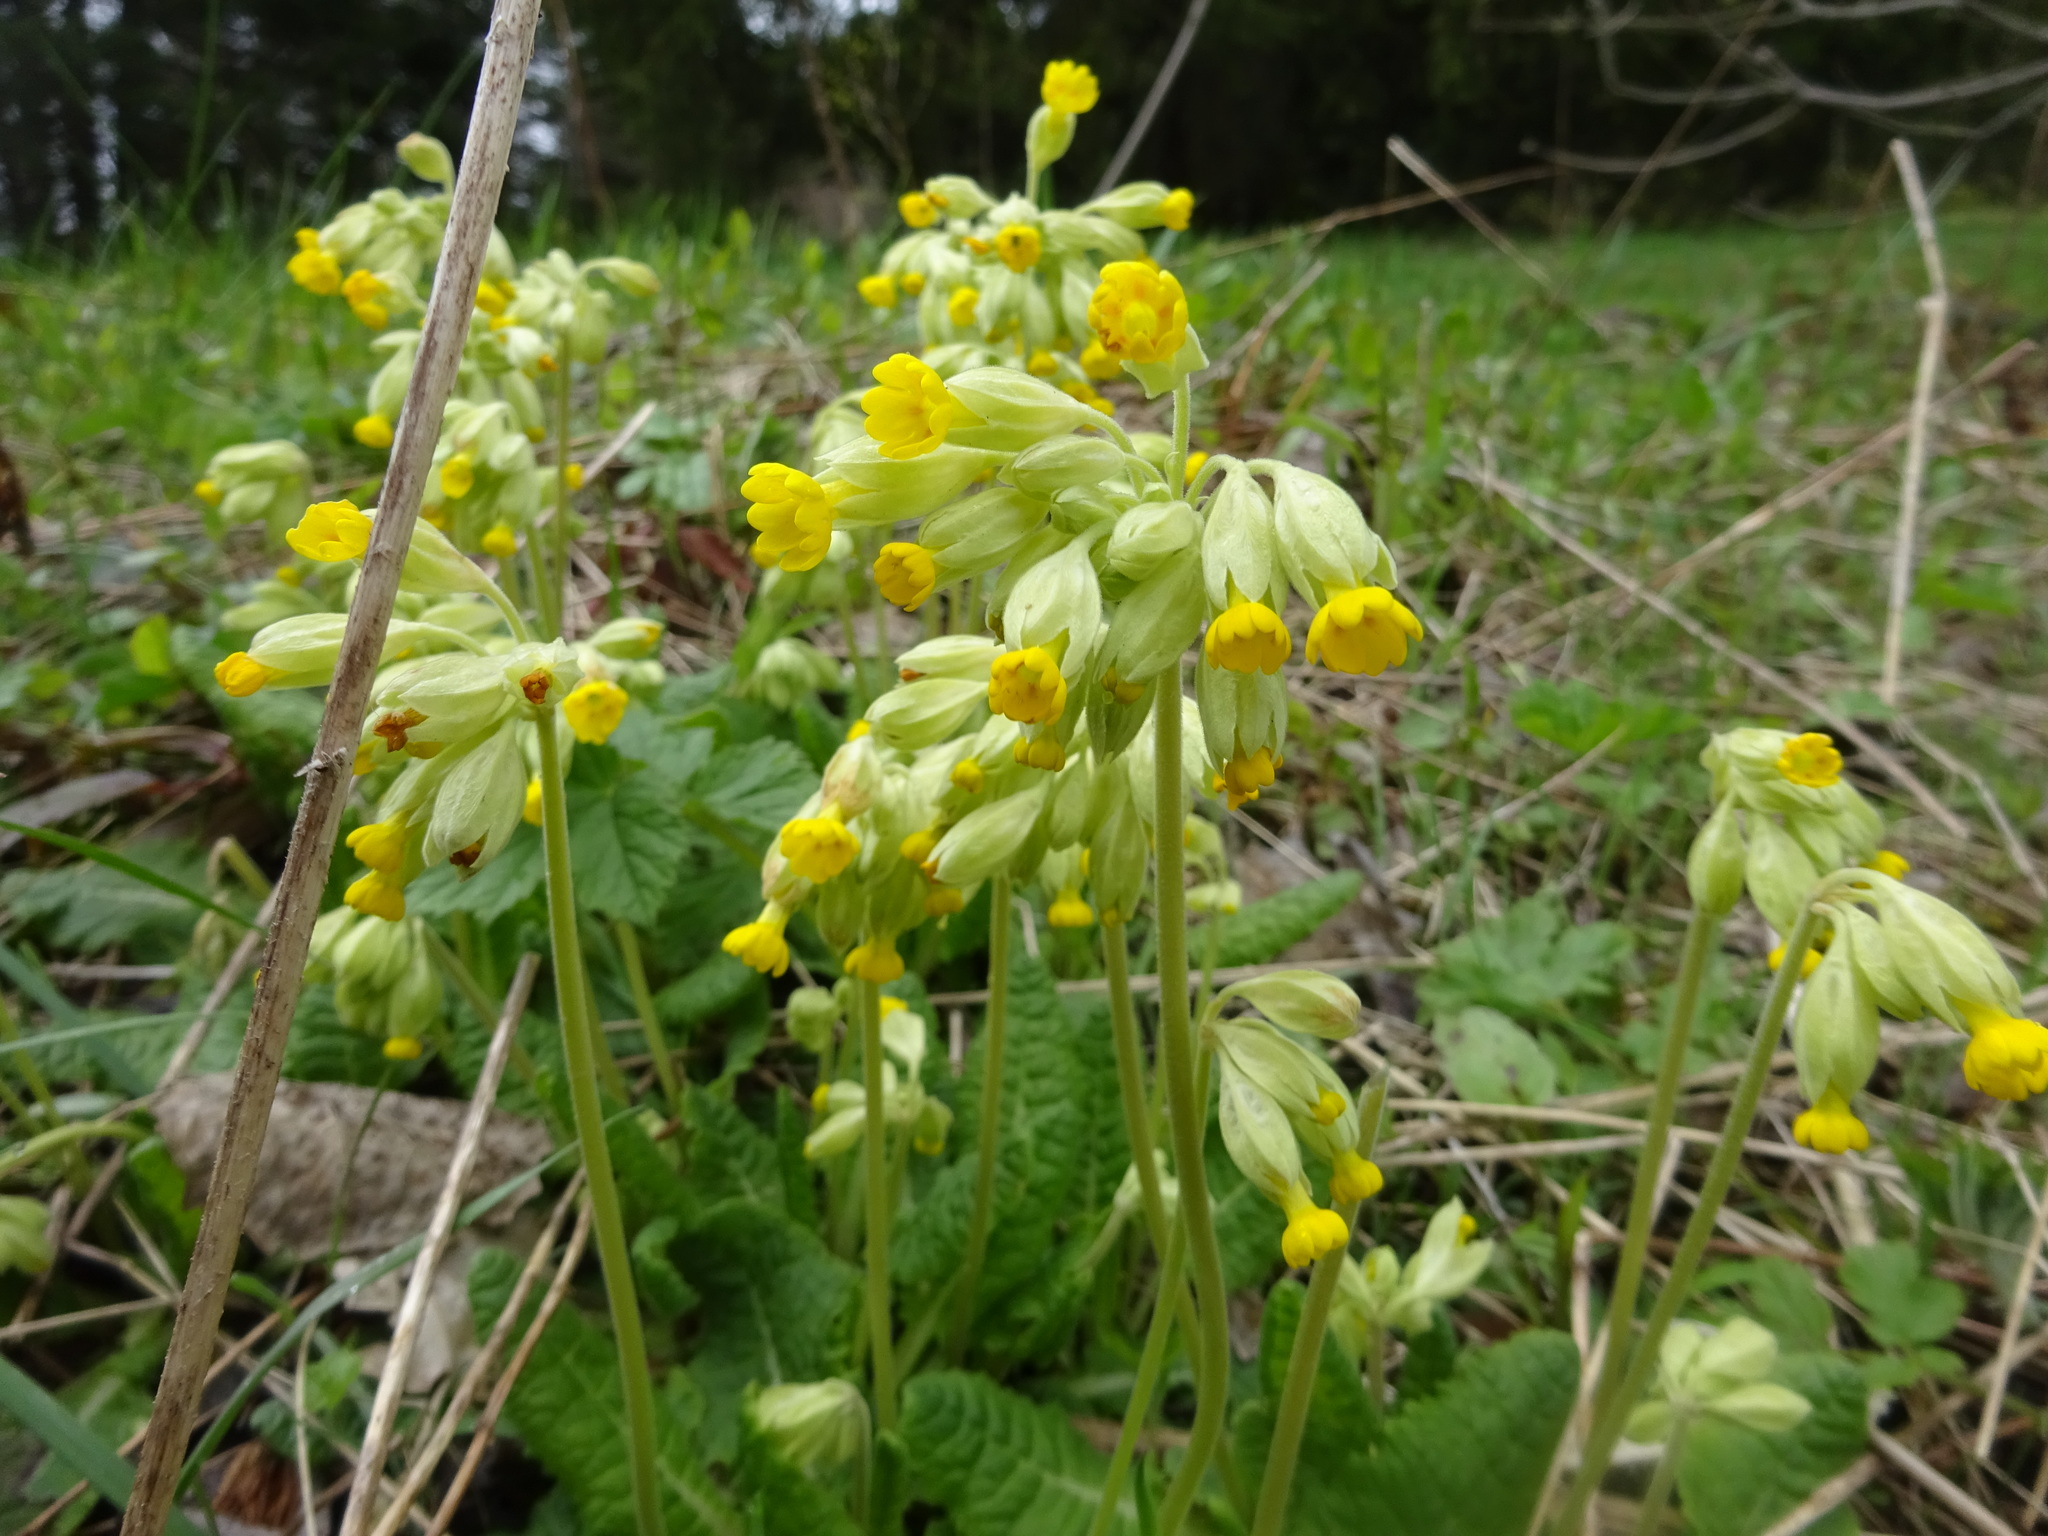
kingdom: Plantae
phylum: Tracheophyta
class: Magnoliopsida
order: Ericales
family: Primulaceae
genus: Primula
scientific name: Primula veris
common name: Cowslip
